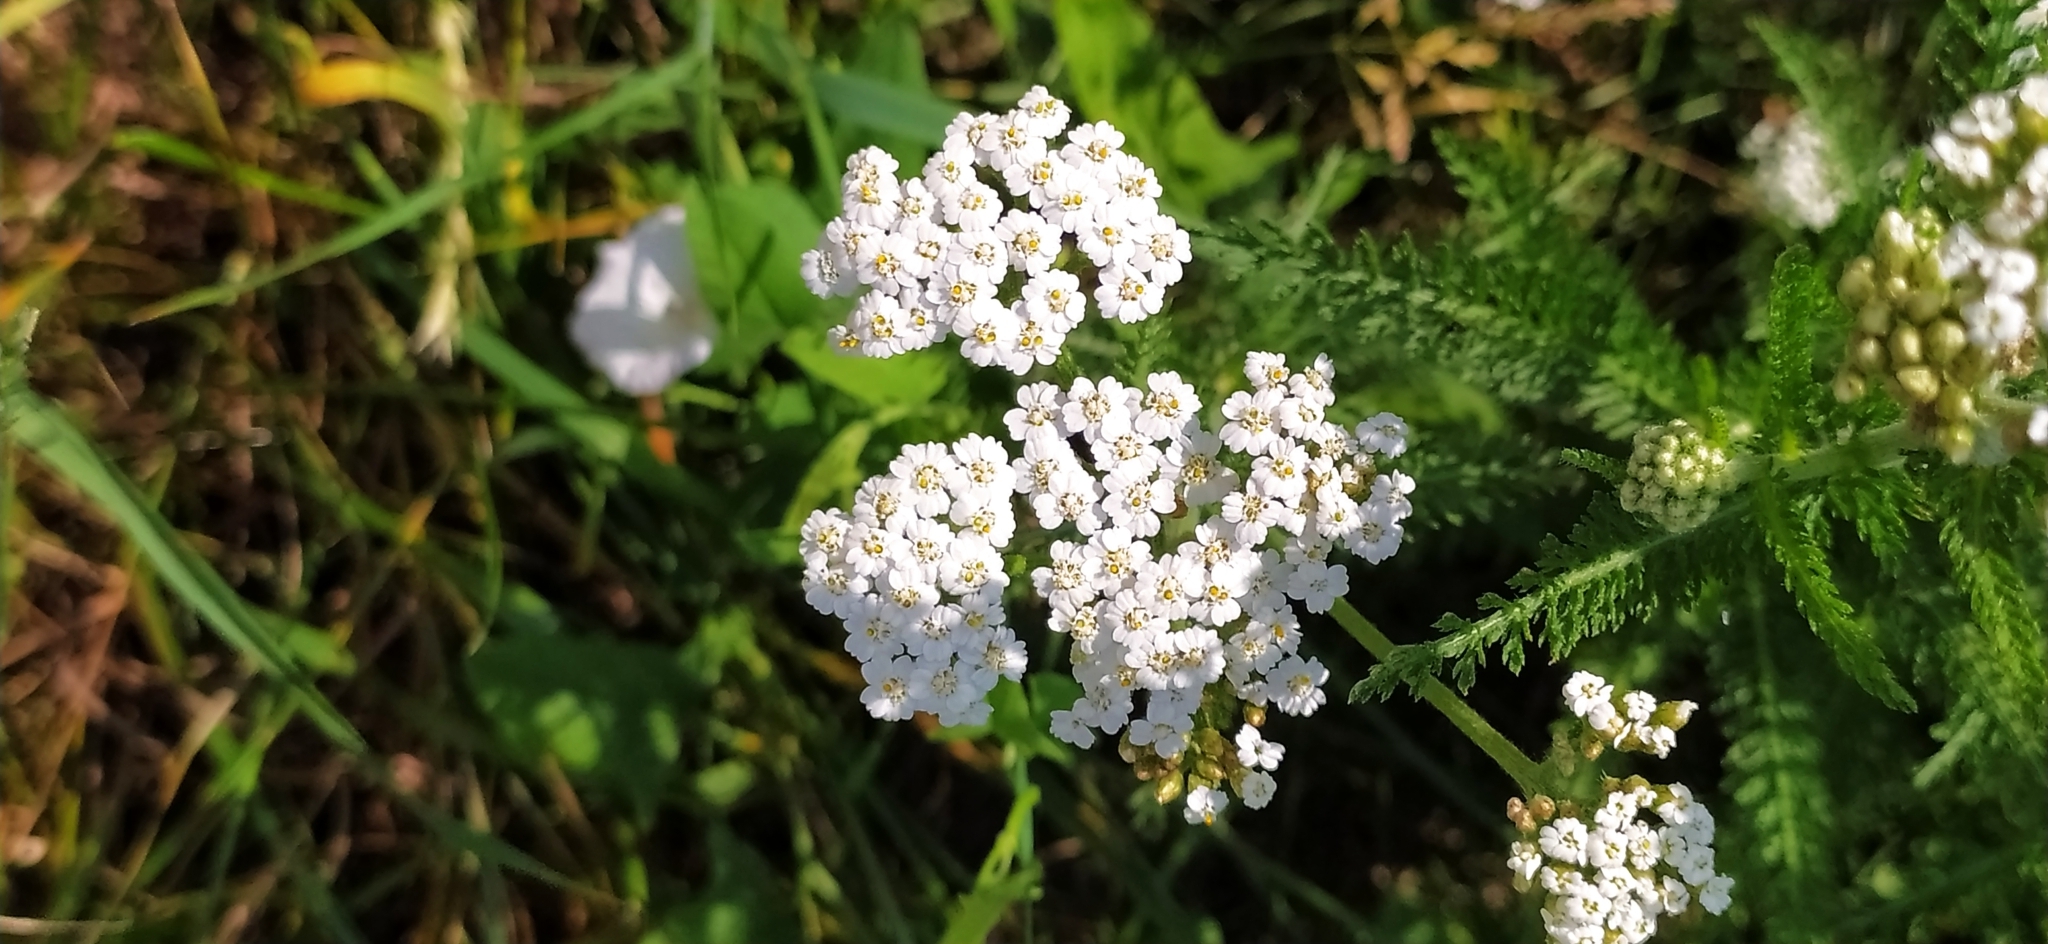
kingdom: Plantae
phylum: Tracheophyta
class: Magnoliopsida
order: Asterales
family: Asteraceae
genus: Achillea
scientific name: Achillea millefolium
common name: Yarrow
